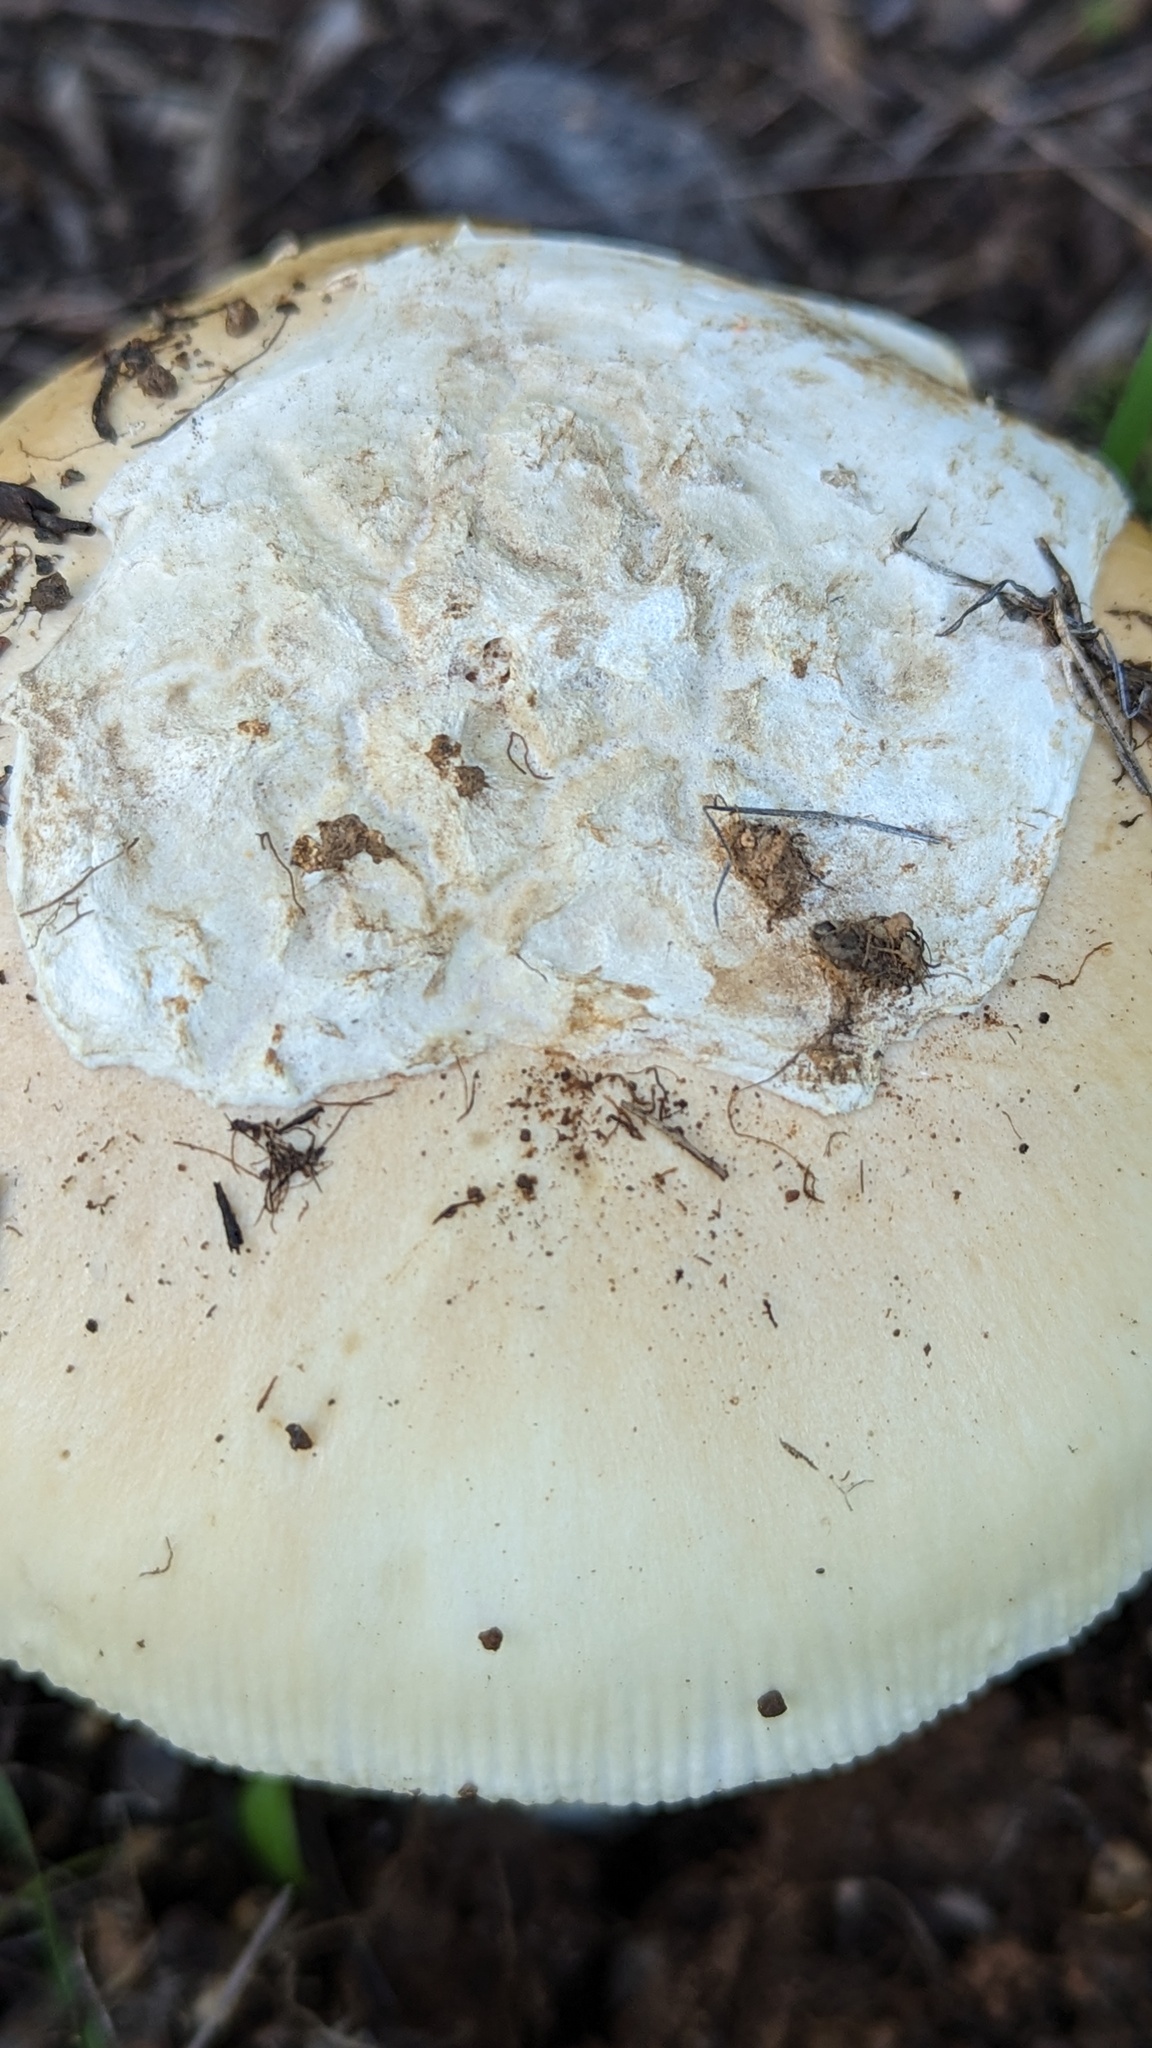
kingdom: Fungi
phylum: Basidiomycota
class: Agaricomycetes
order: Agaricales
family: Amanitaceae
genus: Amanita
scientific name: Amanita velosa
